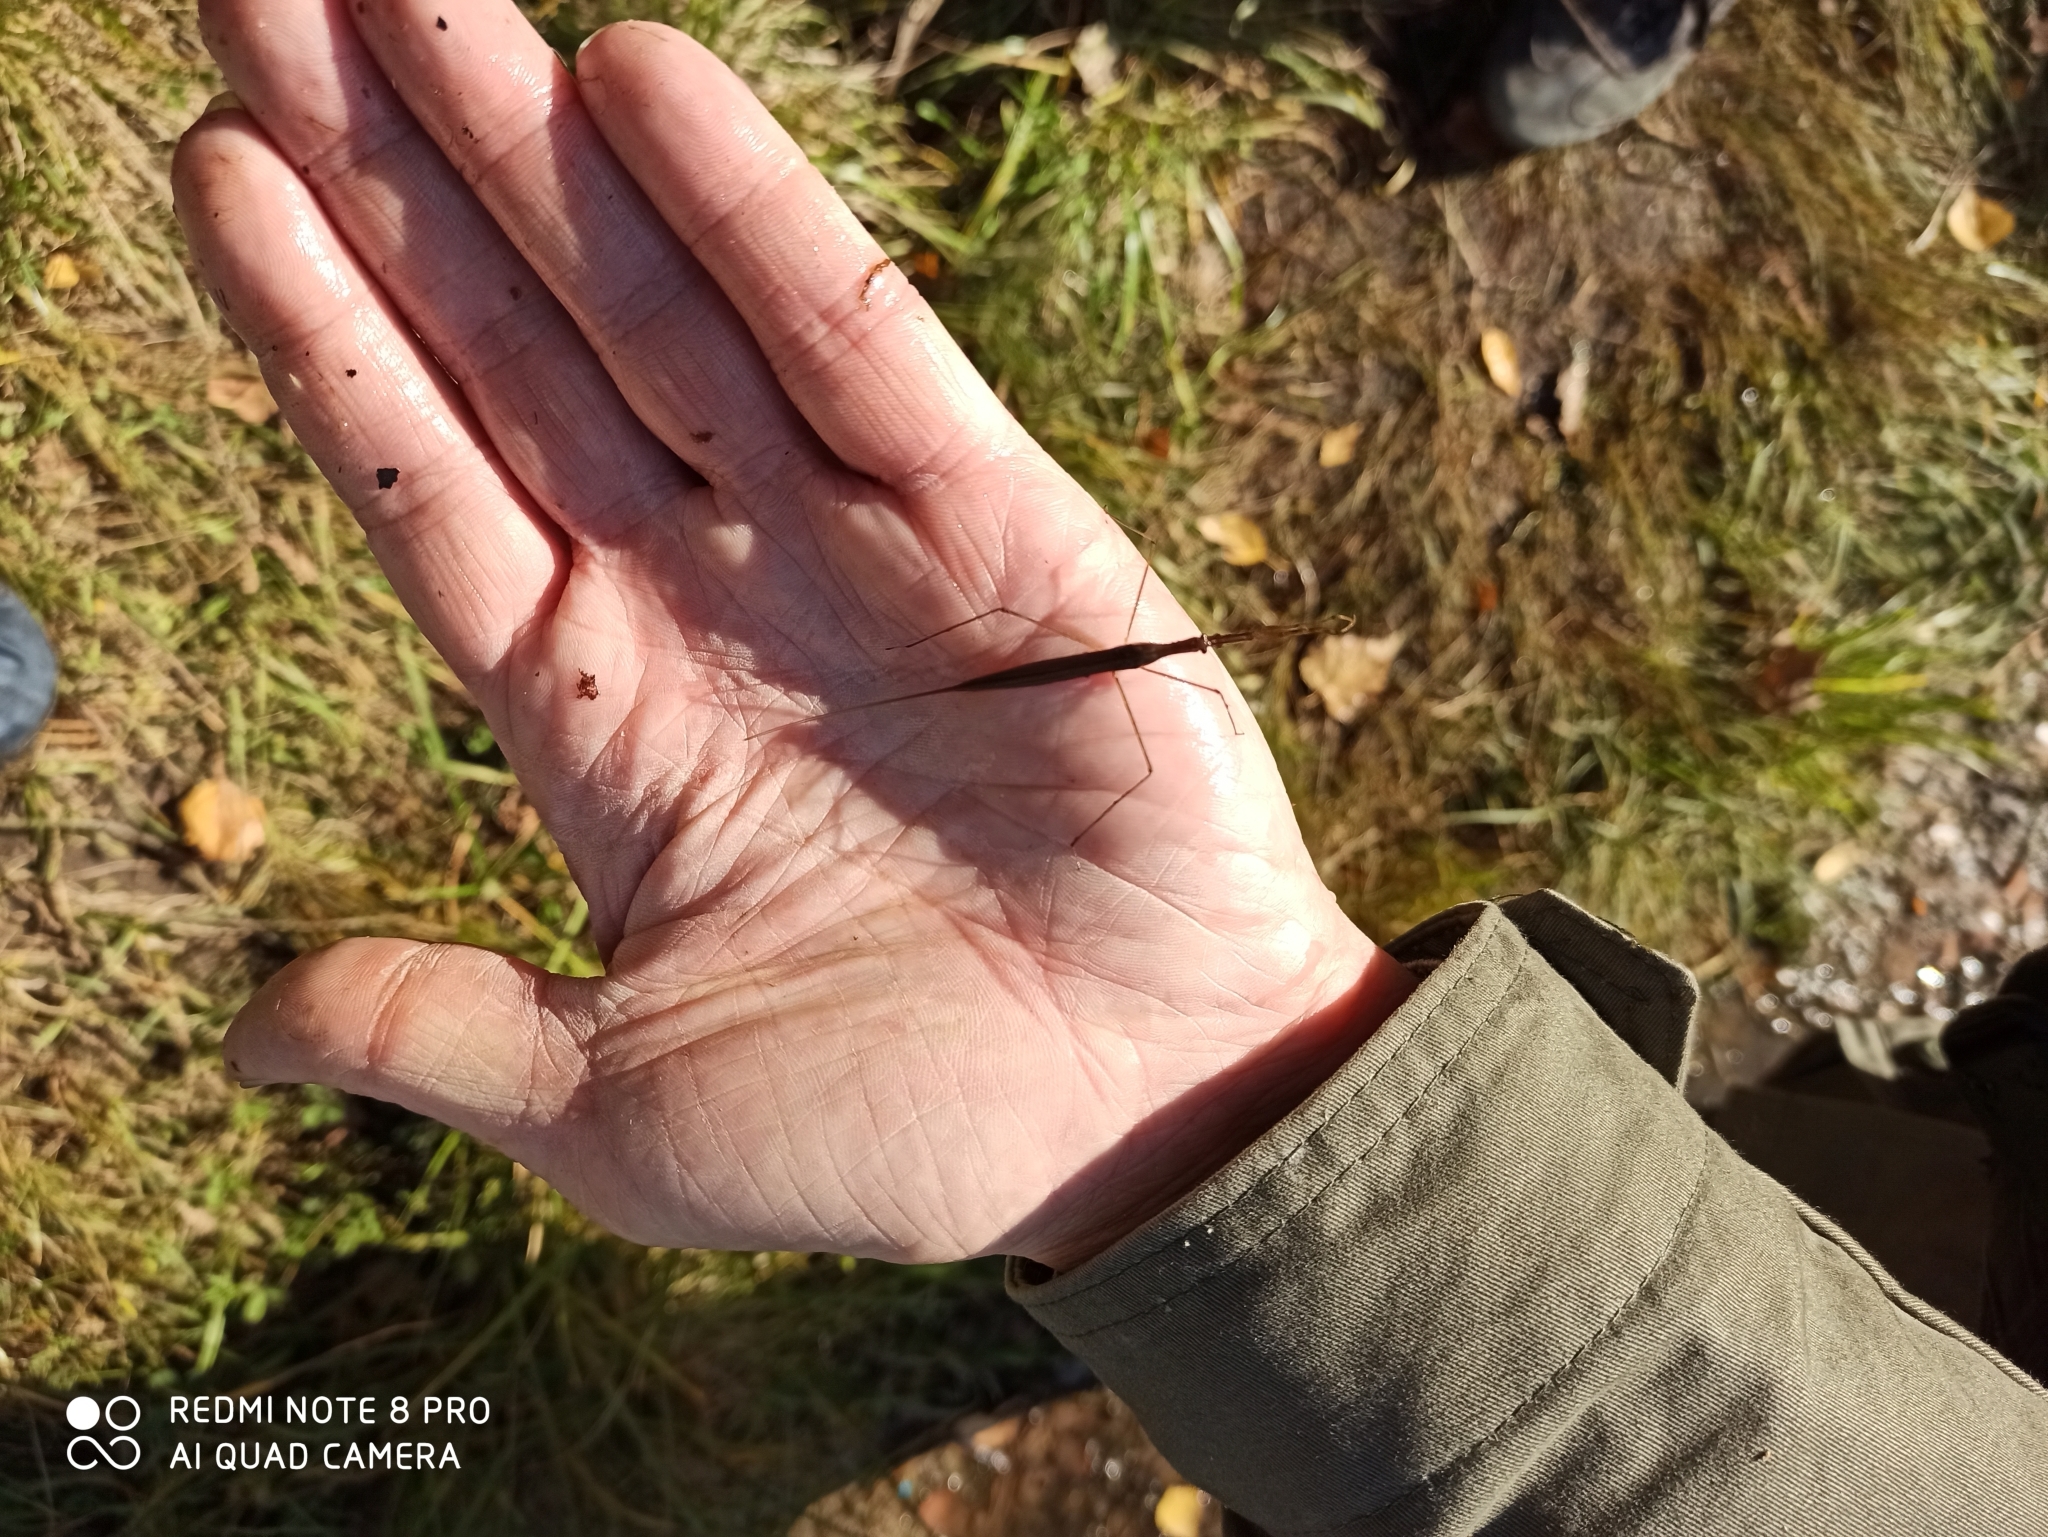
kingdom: Animalia
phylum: Arthropoda
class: Insecta
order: Hemiptera
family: Nepidae
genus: Ranatra
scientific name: Ranatra linearis
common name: Water stick insect
